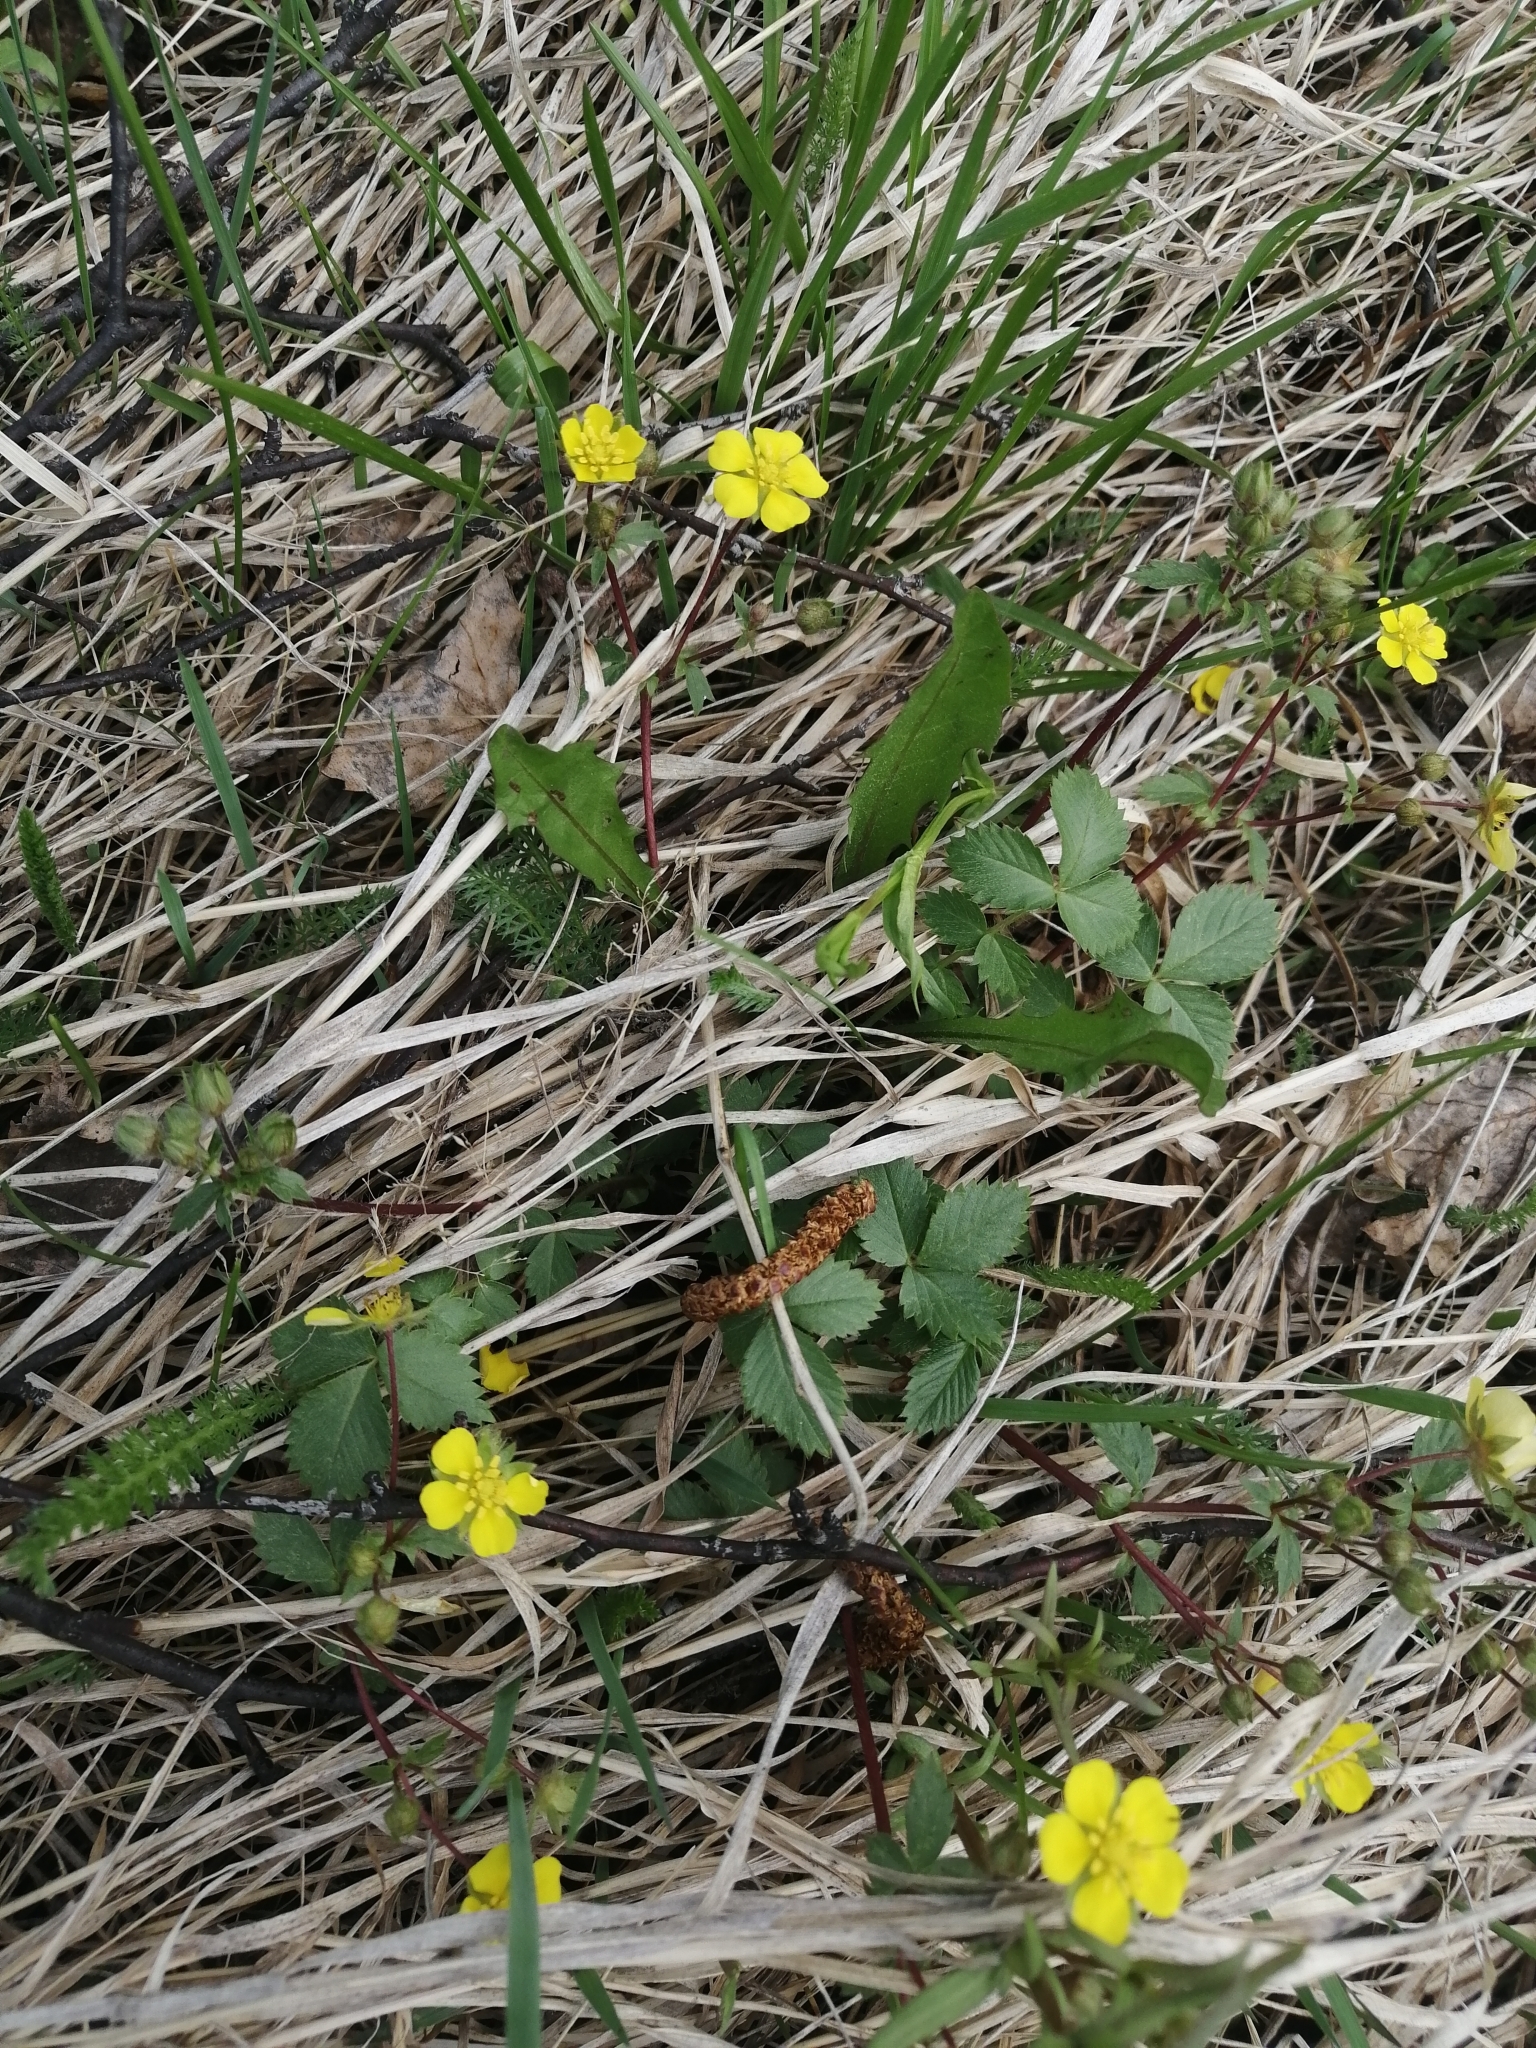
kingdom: Plantae
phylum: Tracheophyta
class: Magnoliopsida
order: Rosales
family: Rosaceae
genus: Potentilla
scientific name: Potentilla fragarioides
